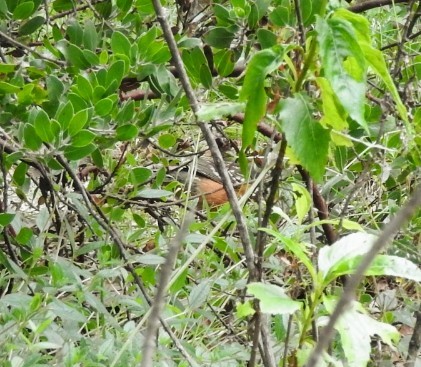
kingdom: Animalia
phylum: Chordata
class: Aves
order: Passeriformes
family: Passerellidae
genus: Pipilo
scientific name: Pipilo maculatus
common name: Spotted towhee
